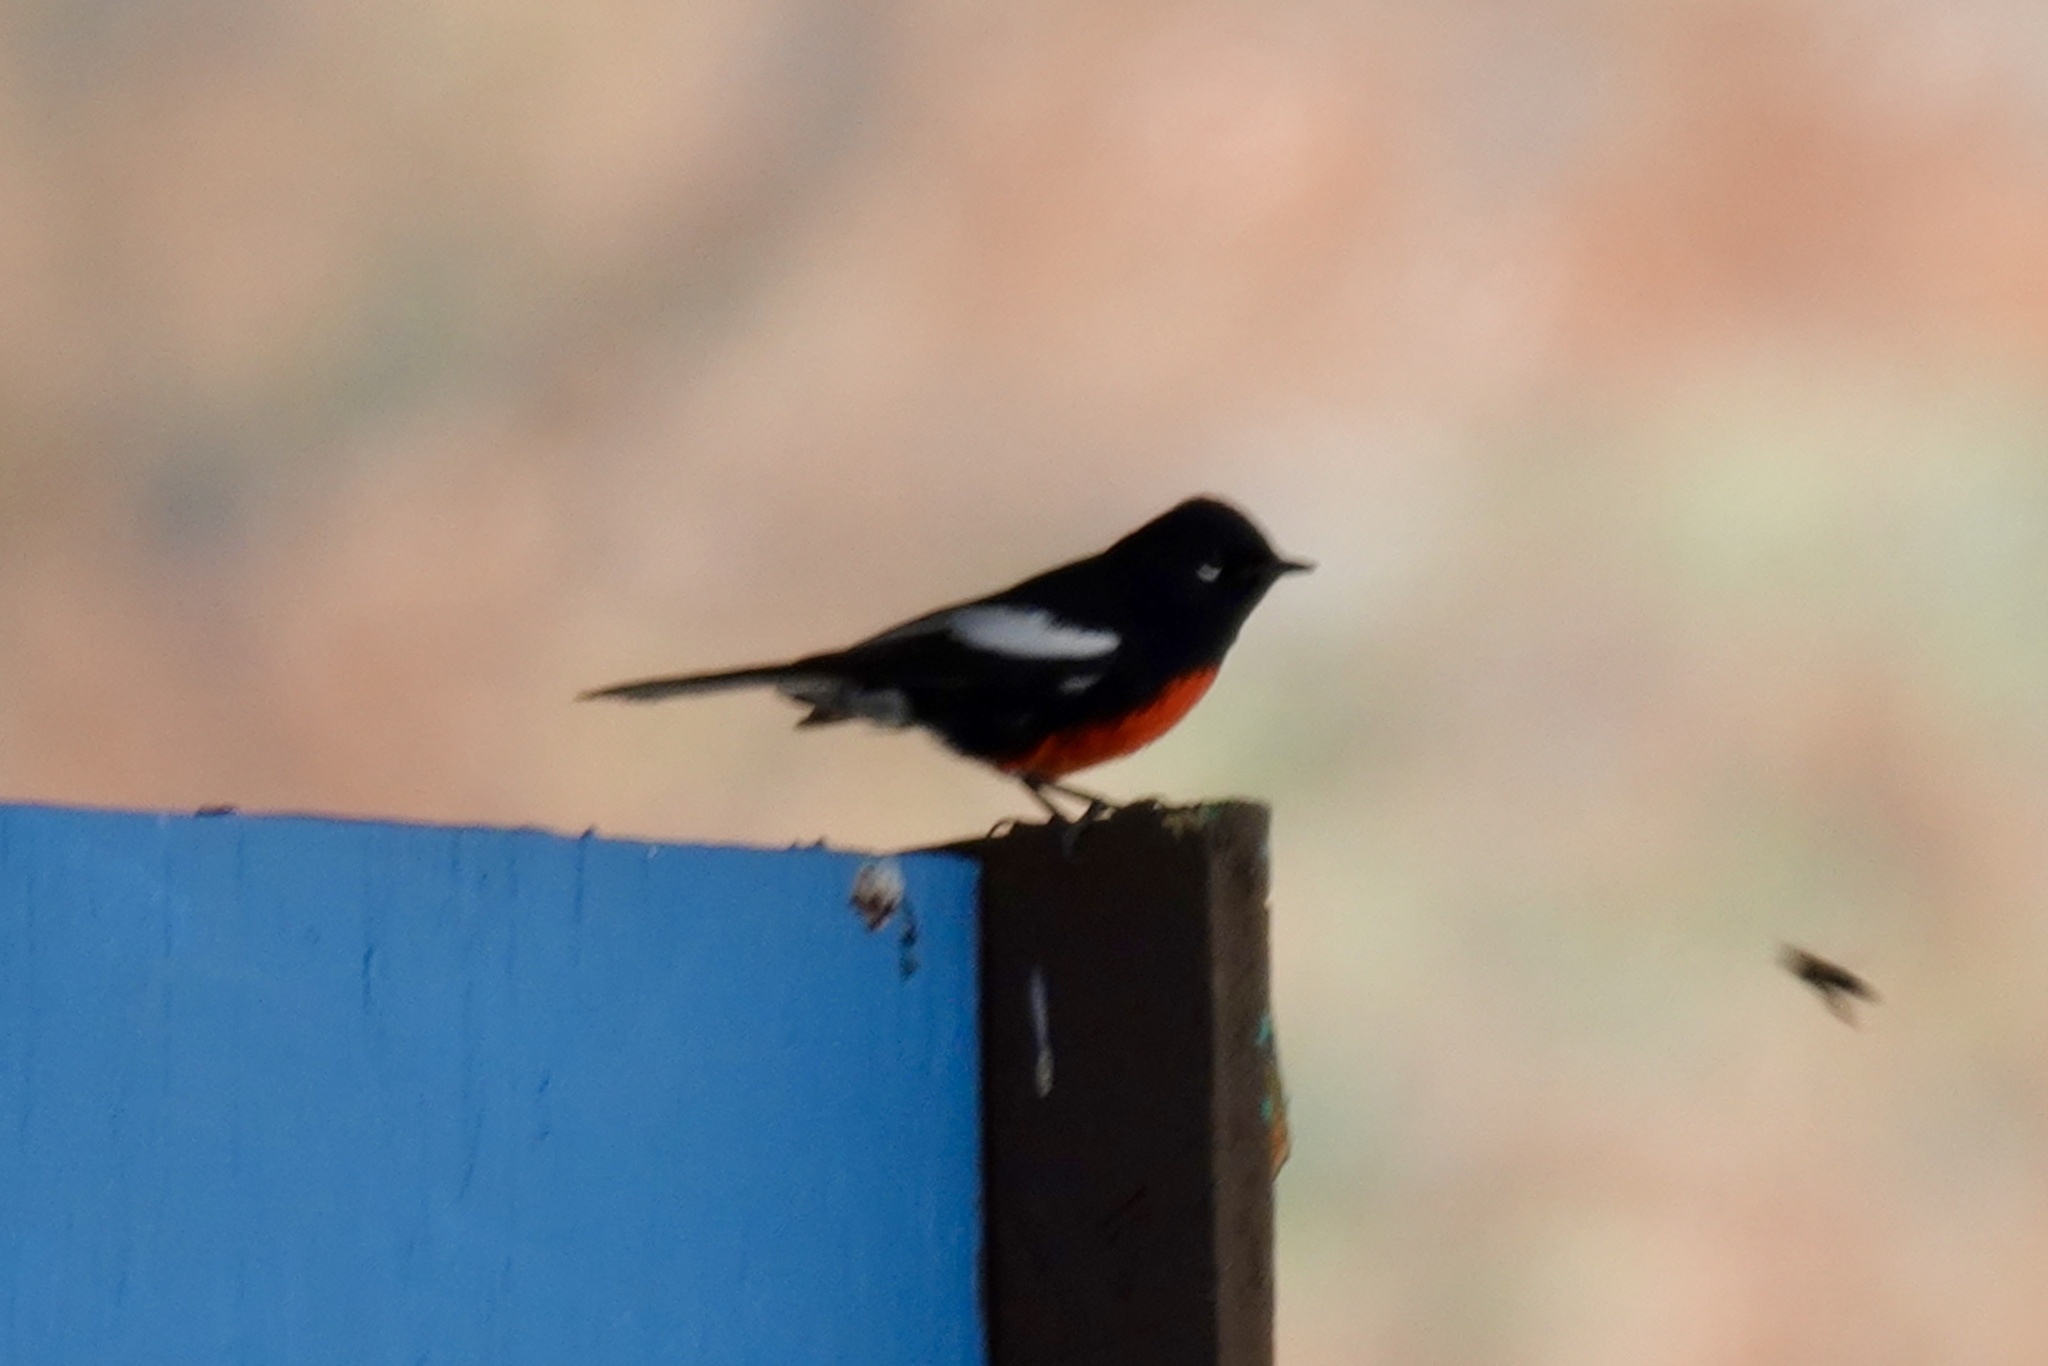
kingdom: Animalia
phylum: Chordata
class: Aves
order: Passeriformes
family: Parulidae
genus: Myioborus
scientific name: Myioborus pictus
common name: Painted whitestart
